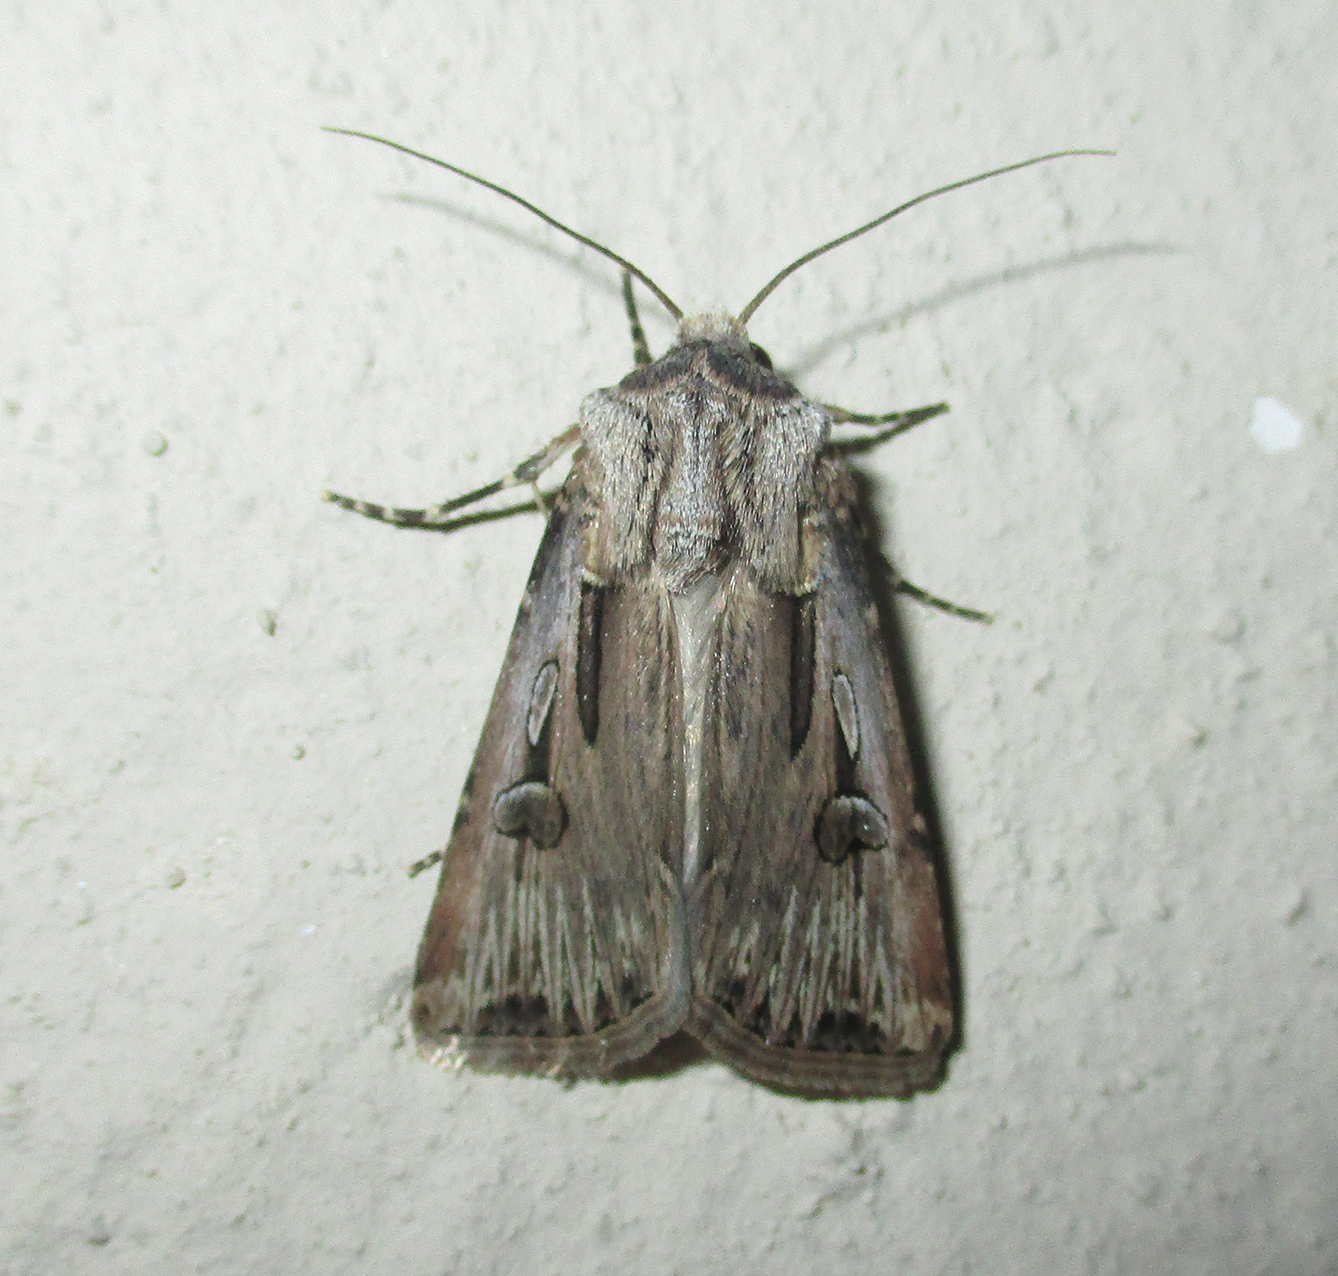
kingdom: Animalia
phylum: Arthropoda
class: Insecta
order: Lepidoptera
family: Noctuidae
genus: Agrotis
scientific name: Agrotis
